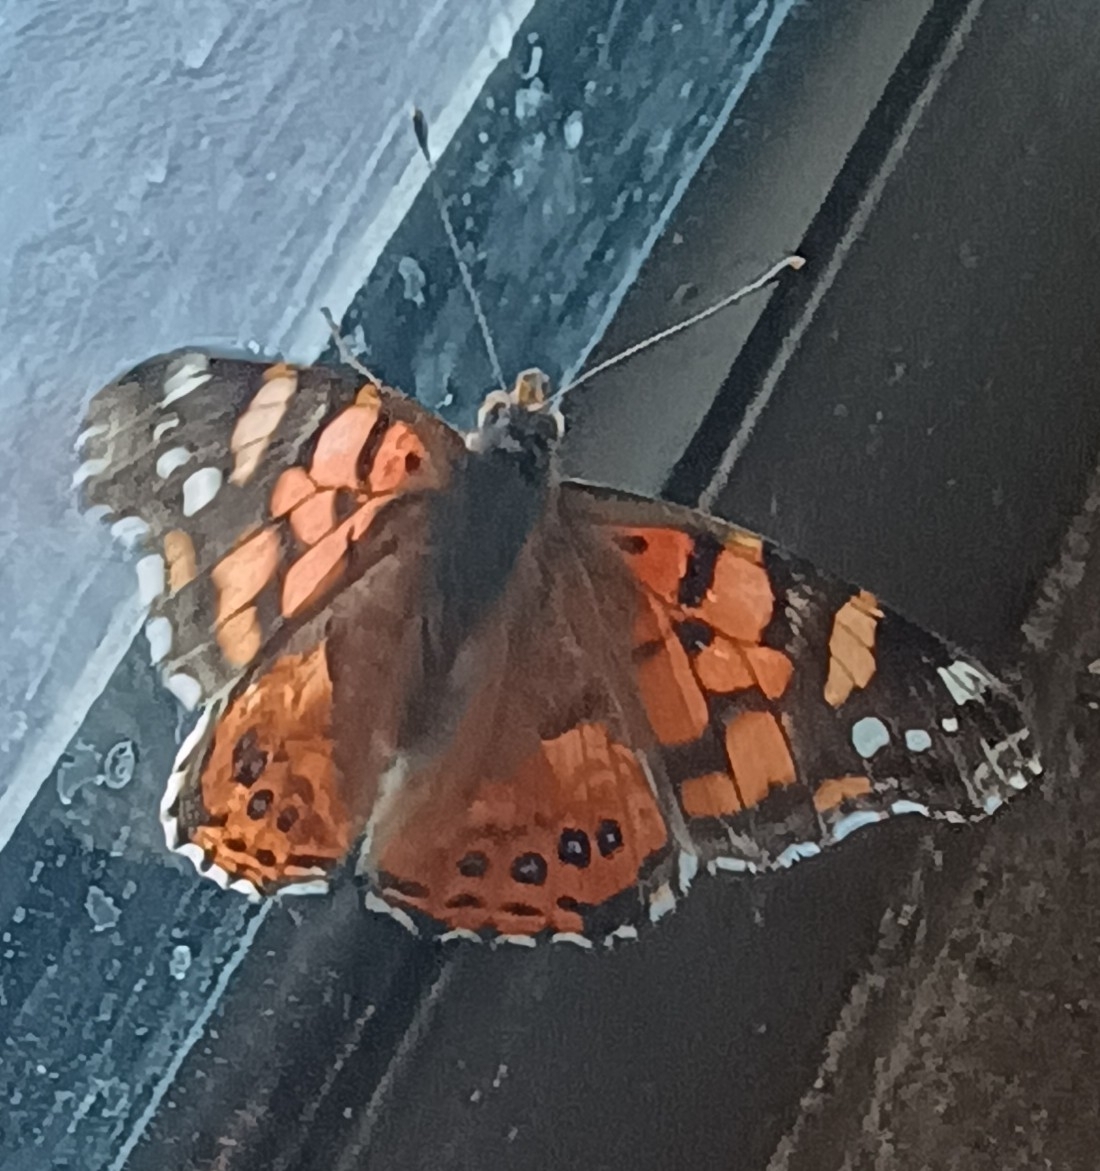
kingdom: Animalia
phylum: Arthropoda
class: Insecta
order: Lepidoptera
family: Nymphalidae
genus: Vanessa
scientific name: Vanessa carye
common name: Subtropical lady
